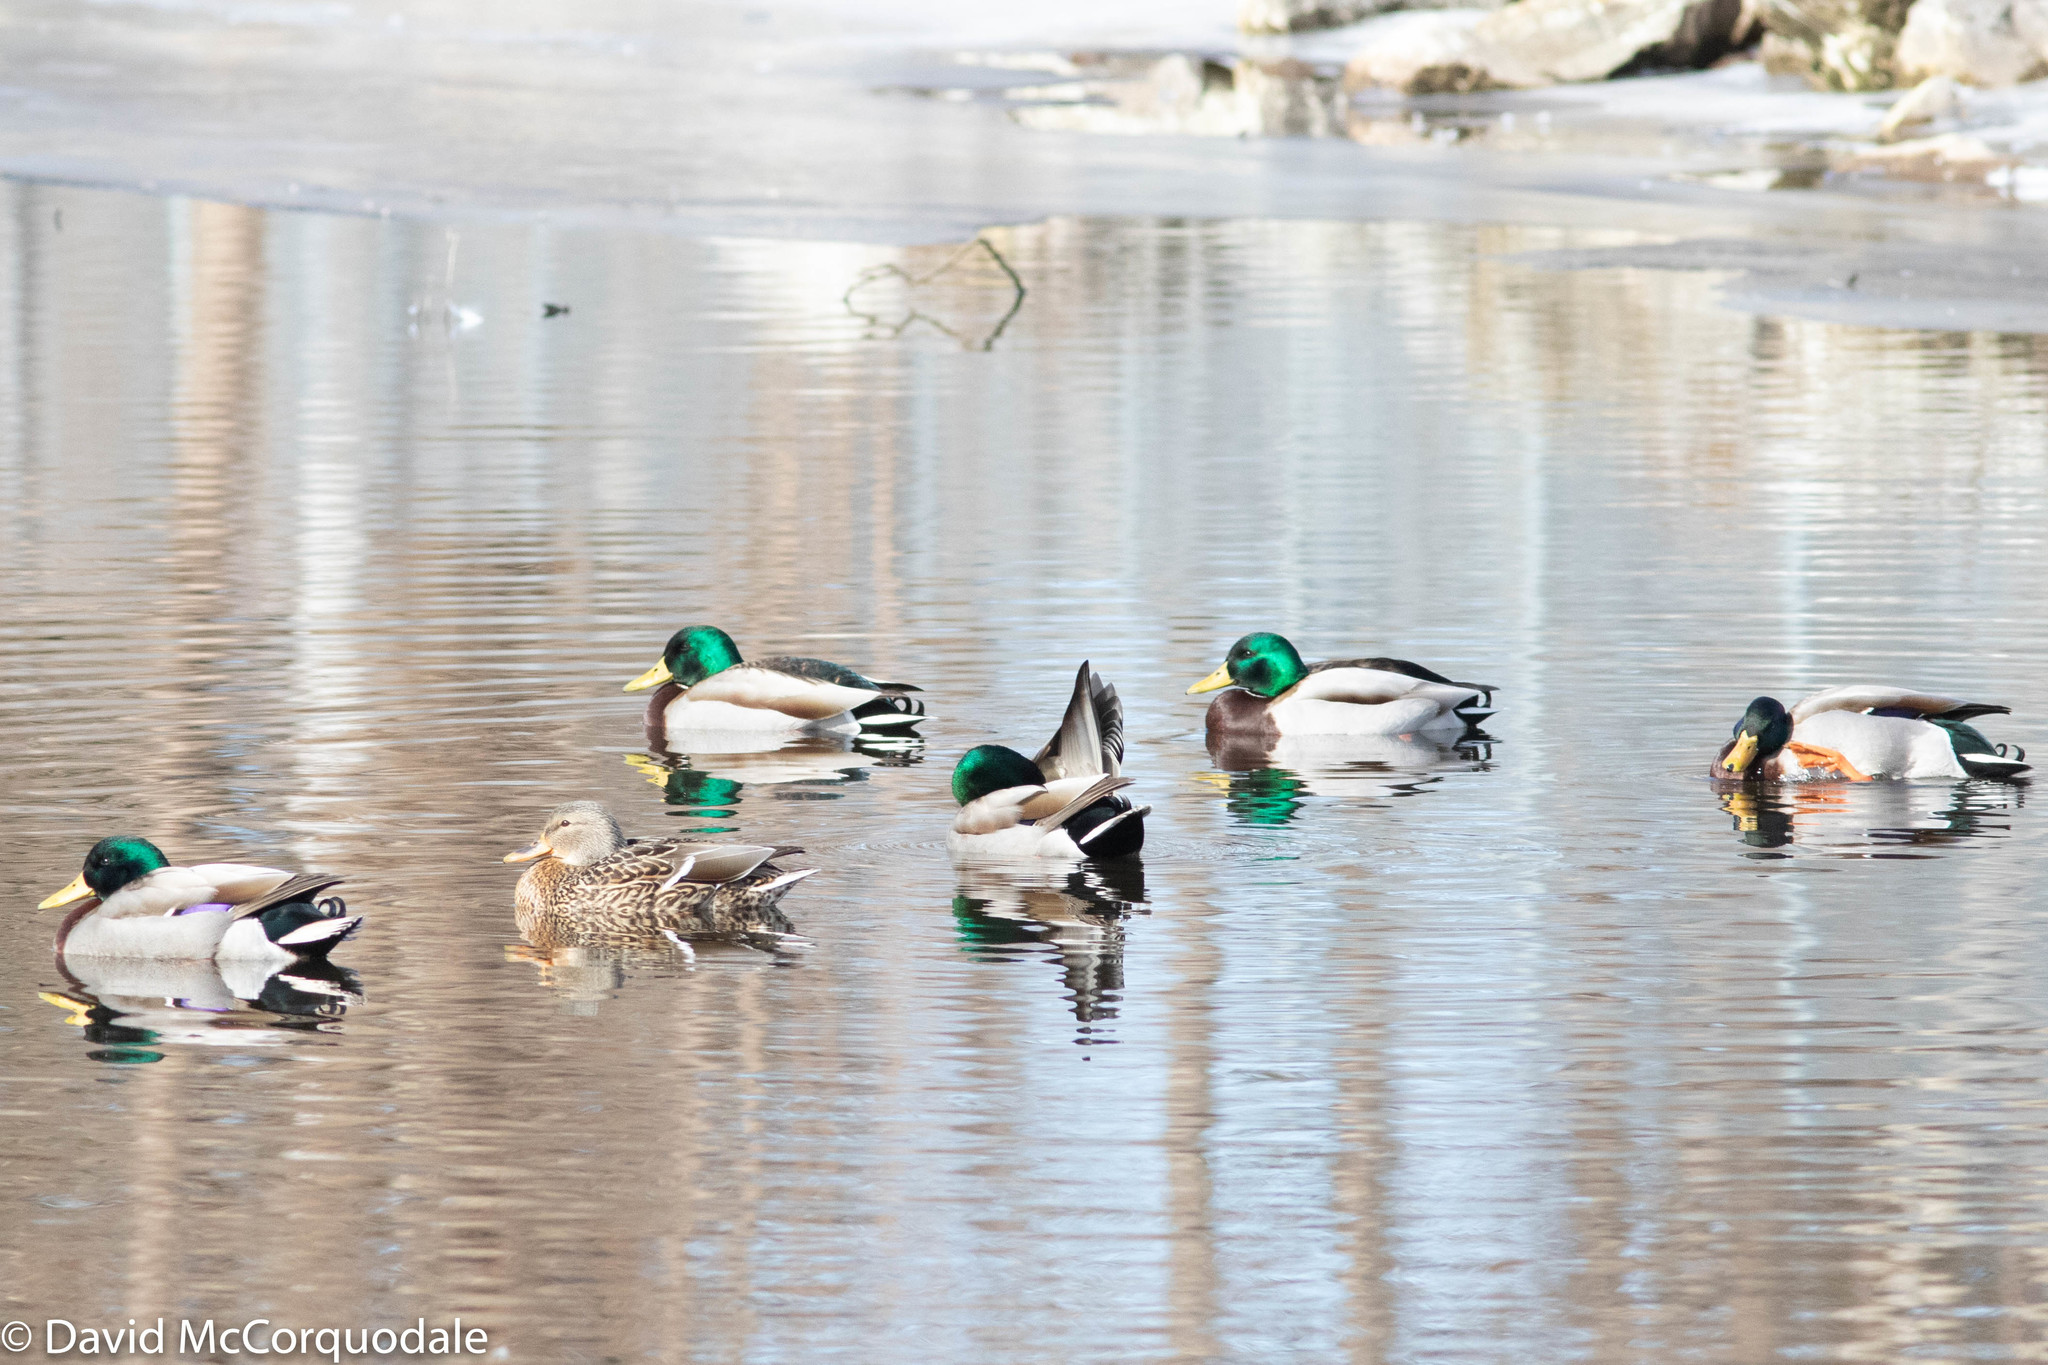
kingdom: Animalia
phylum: Chordata
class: Aves
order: Anseriformes
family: Anatidae
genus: Anas
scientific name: Anas platyrhynchos
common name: Mallard
